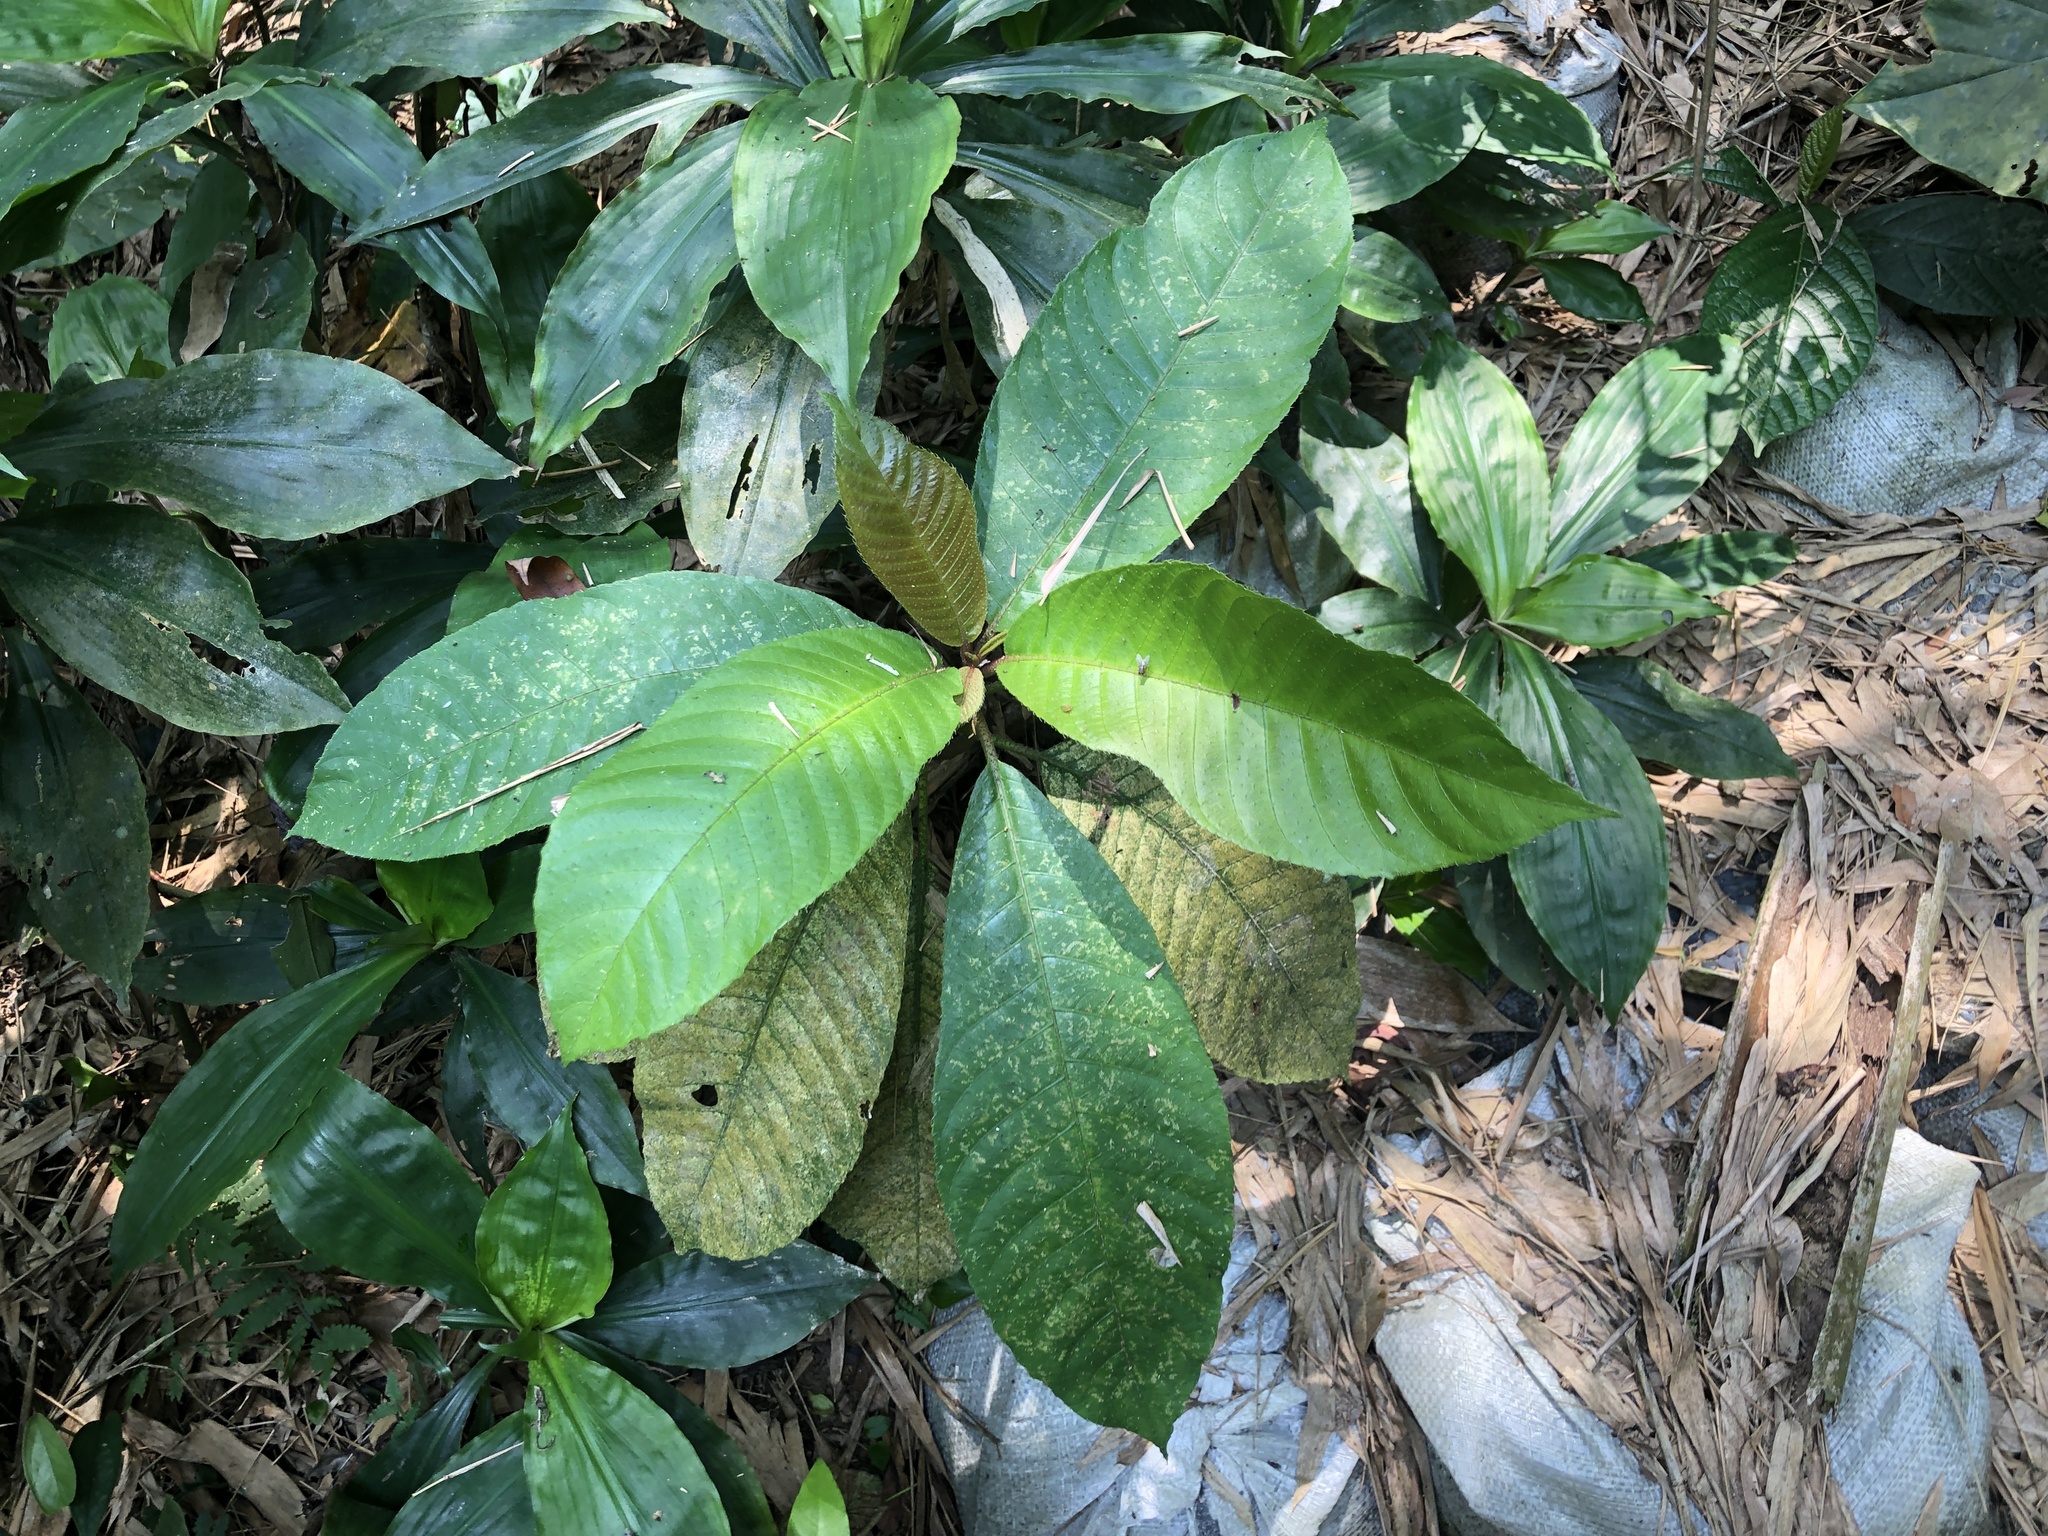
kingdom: Plantae
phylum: Tracheophyta
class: Magnoliopsida
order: Ericales
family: Actinidiaceae
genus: Saurauia
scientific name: Saurauia tristyla
